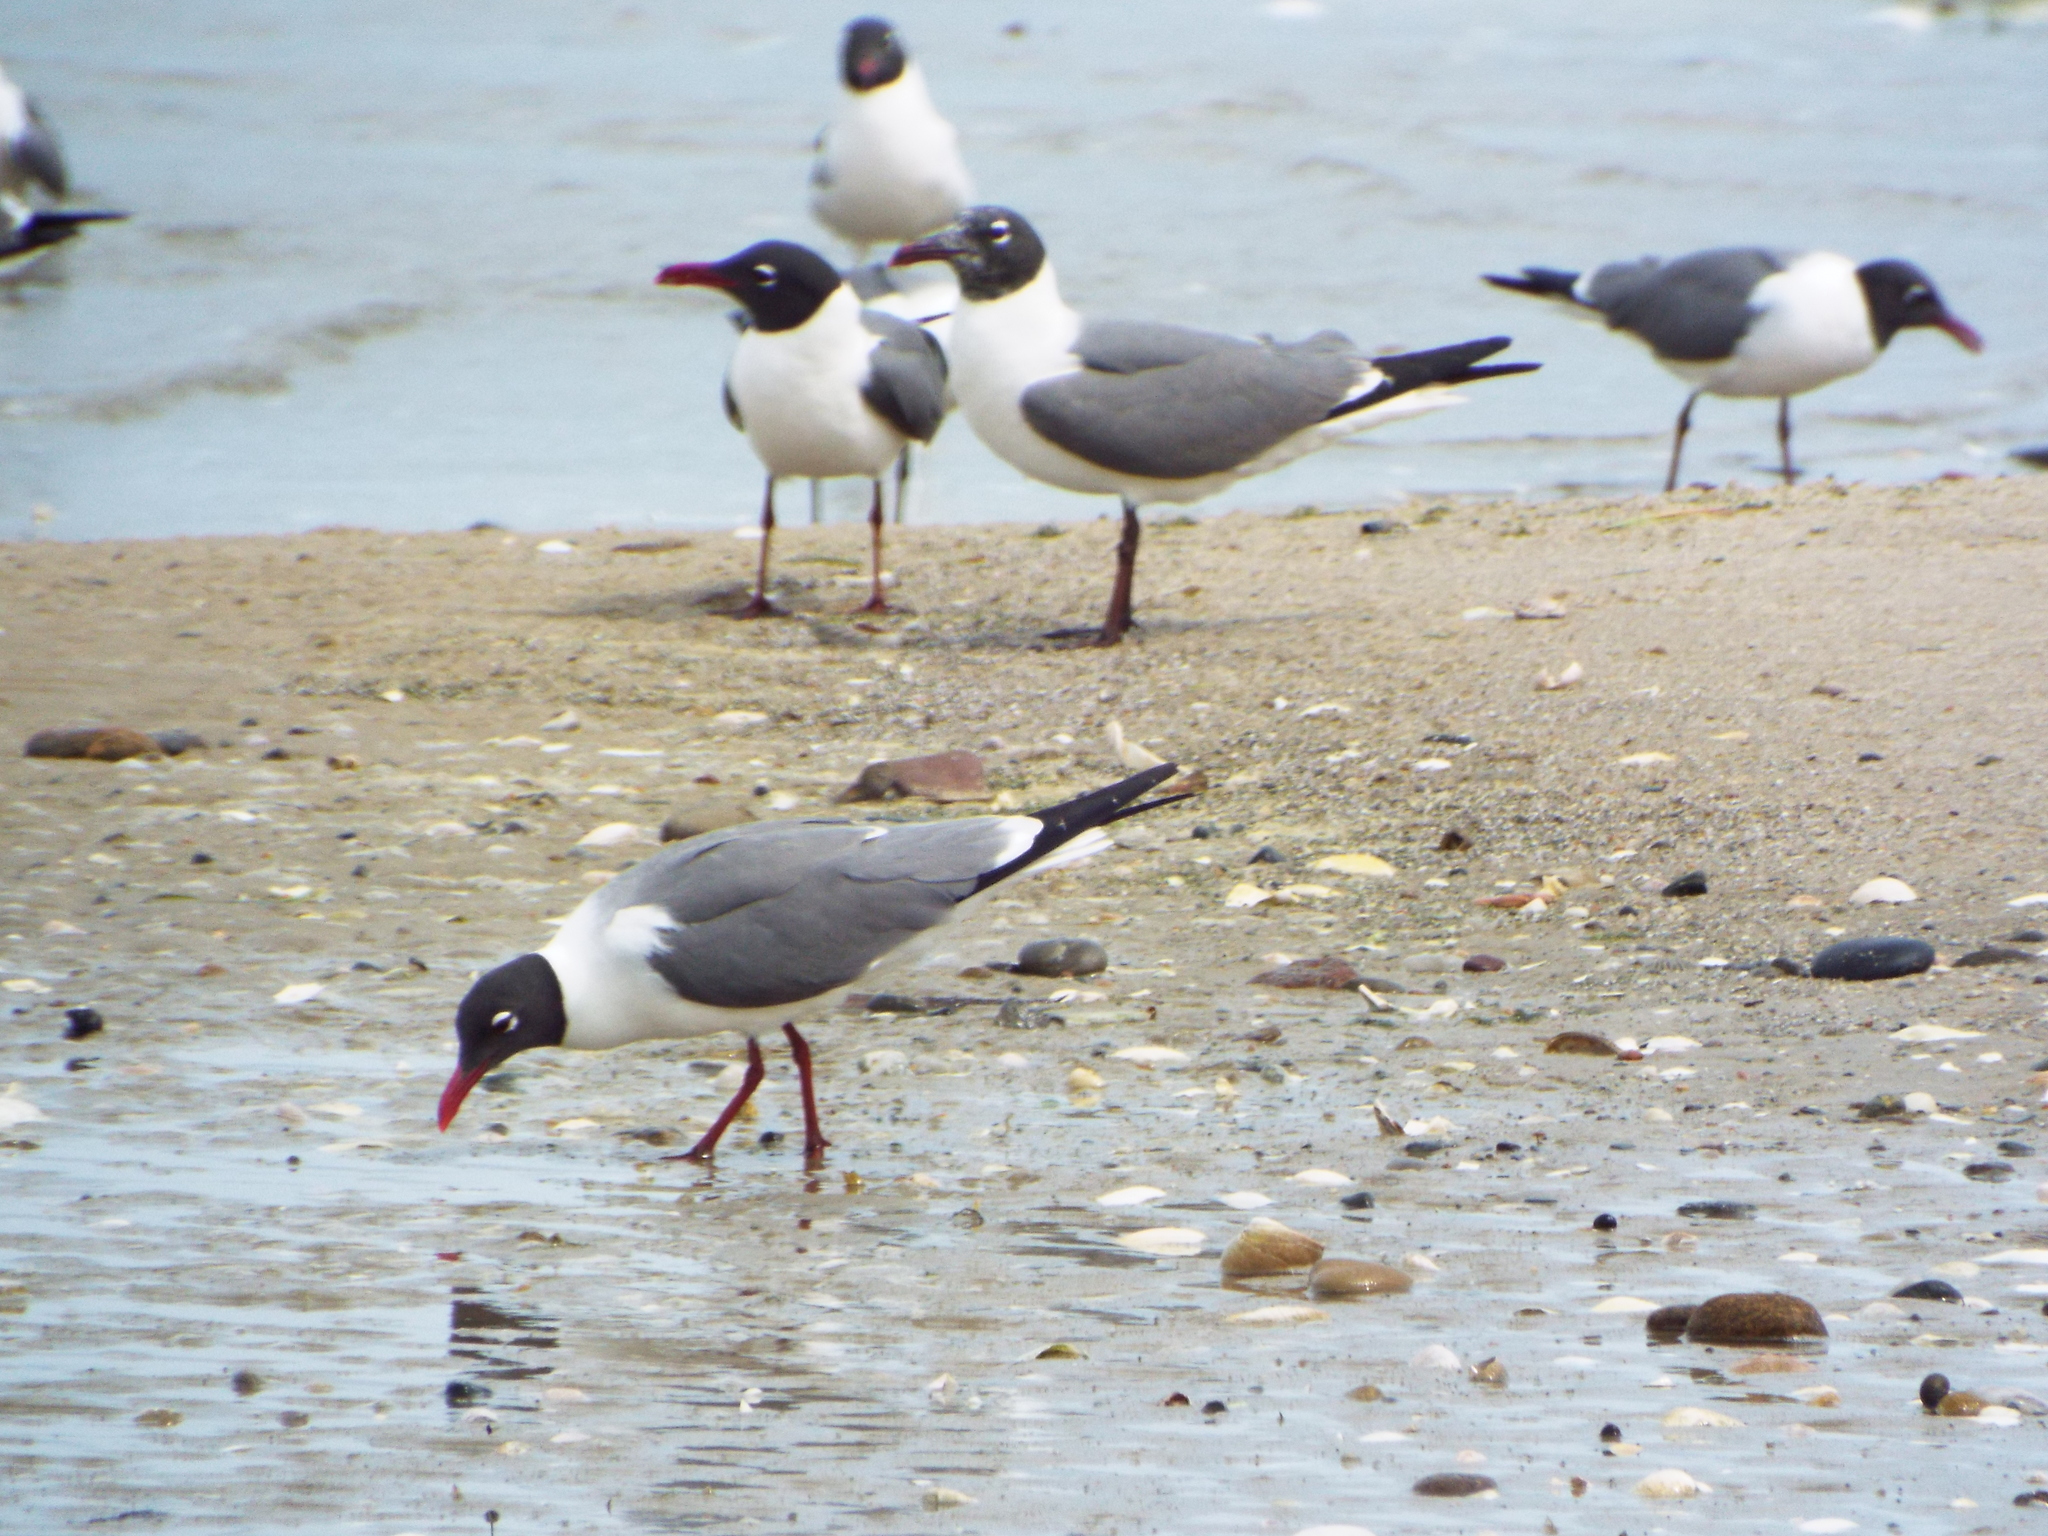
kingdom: Animalia
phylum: Chordata
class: Aves
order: Charadriiformes
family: Laridae
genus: Leucophaeus
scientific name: Leucophaeus atricilla
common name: Laughing gull
